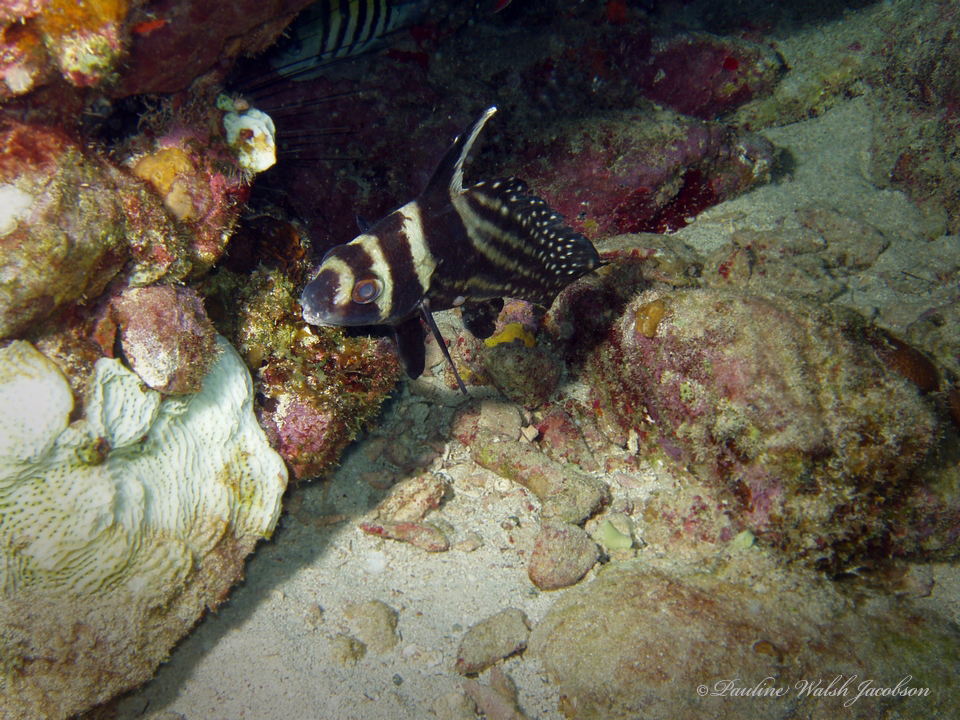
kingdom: Animalia
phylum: Chordata
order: Perciformes
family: Sciaenidae
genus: Equetus
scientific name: Equetus punctatus
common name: Spotted drum
